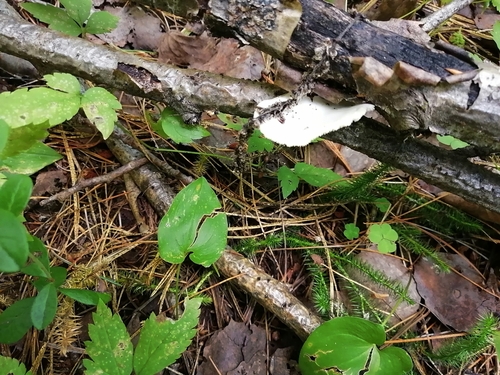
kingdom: Fungi
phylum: Basidiomycota
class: Agaricomycetes
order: Agaricales
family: Pleurotaceae
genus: Pleurotus
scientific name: Pleurotus pulmonarius
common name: Pale oyster
